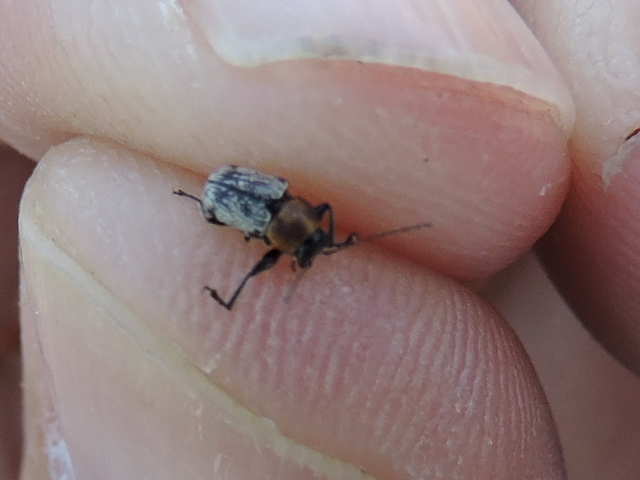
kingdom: Animalia
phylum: Arthropoda
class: Insecta
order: Coleoptera
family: Chrysomelidae
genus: Pachybrachis
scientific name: Pachybrachis luridus
